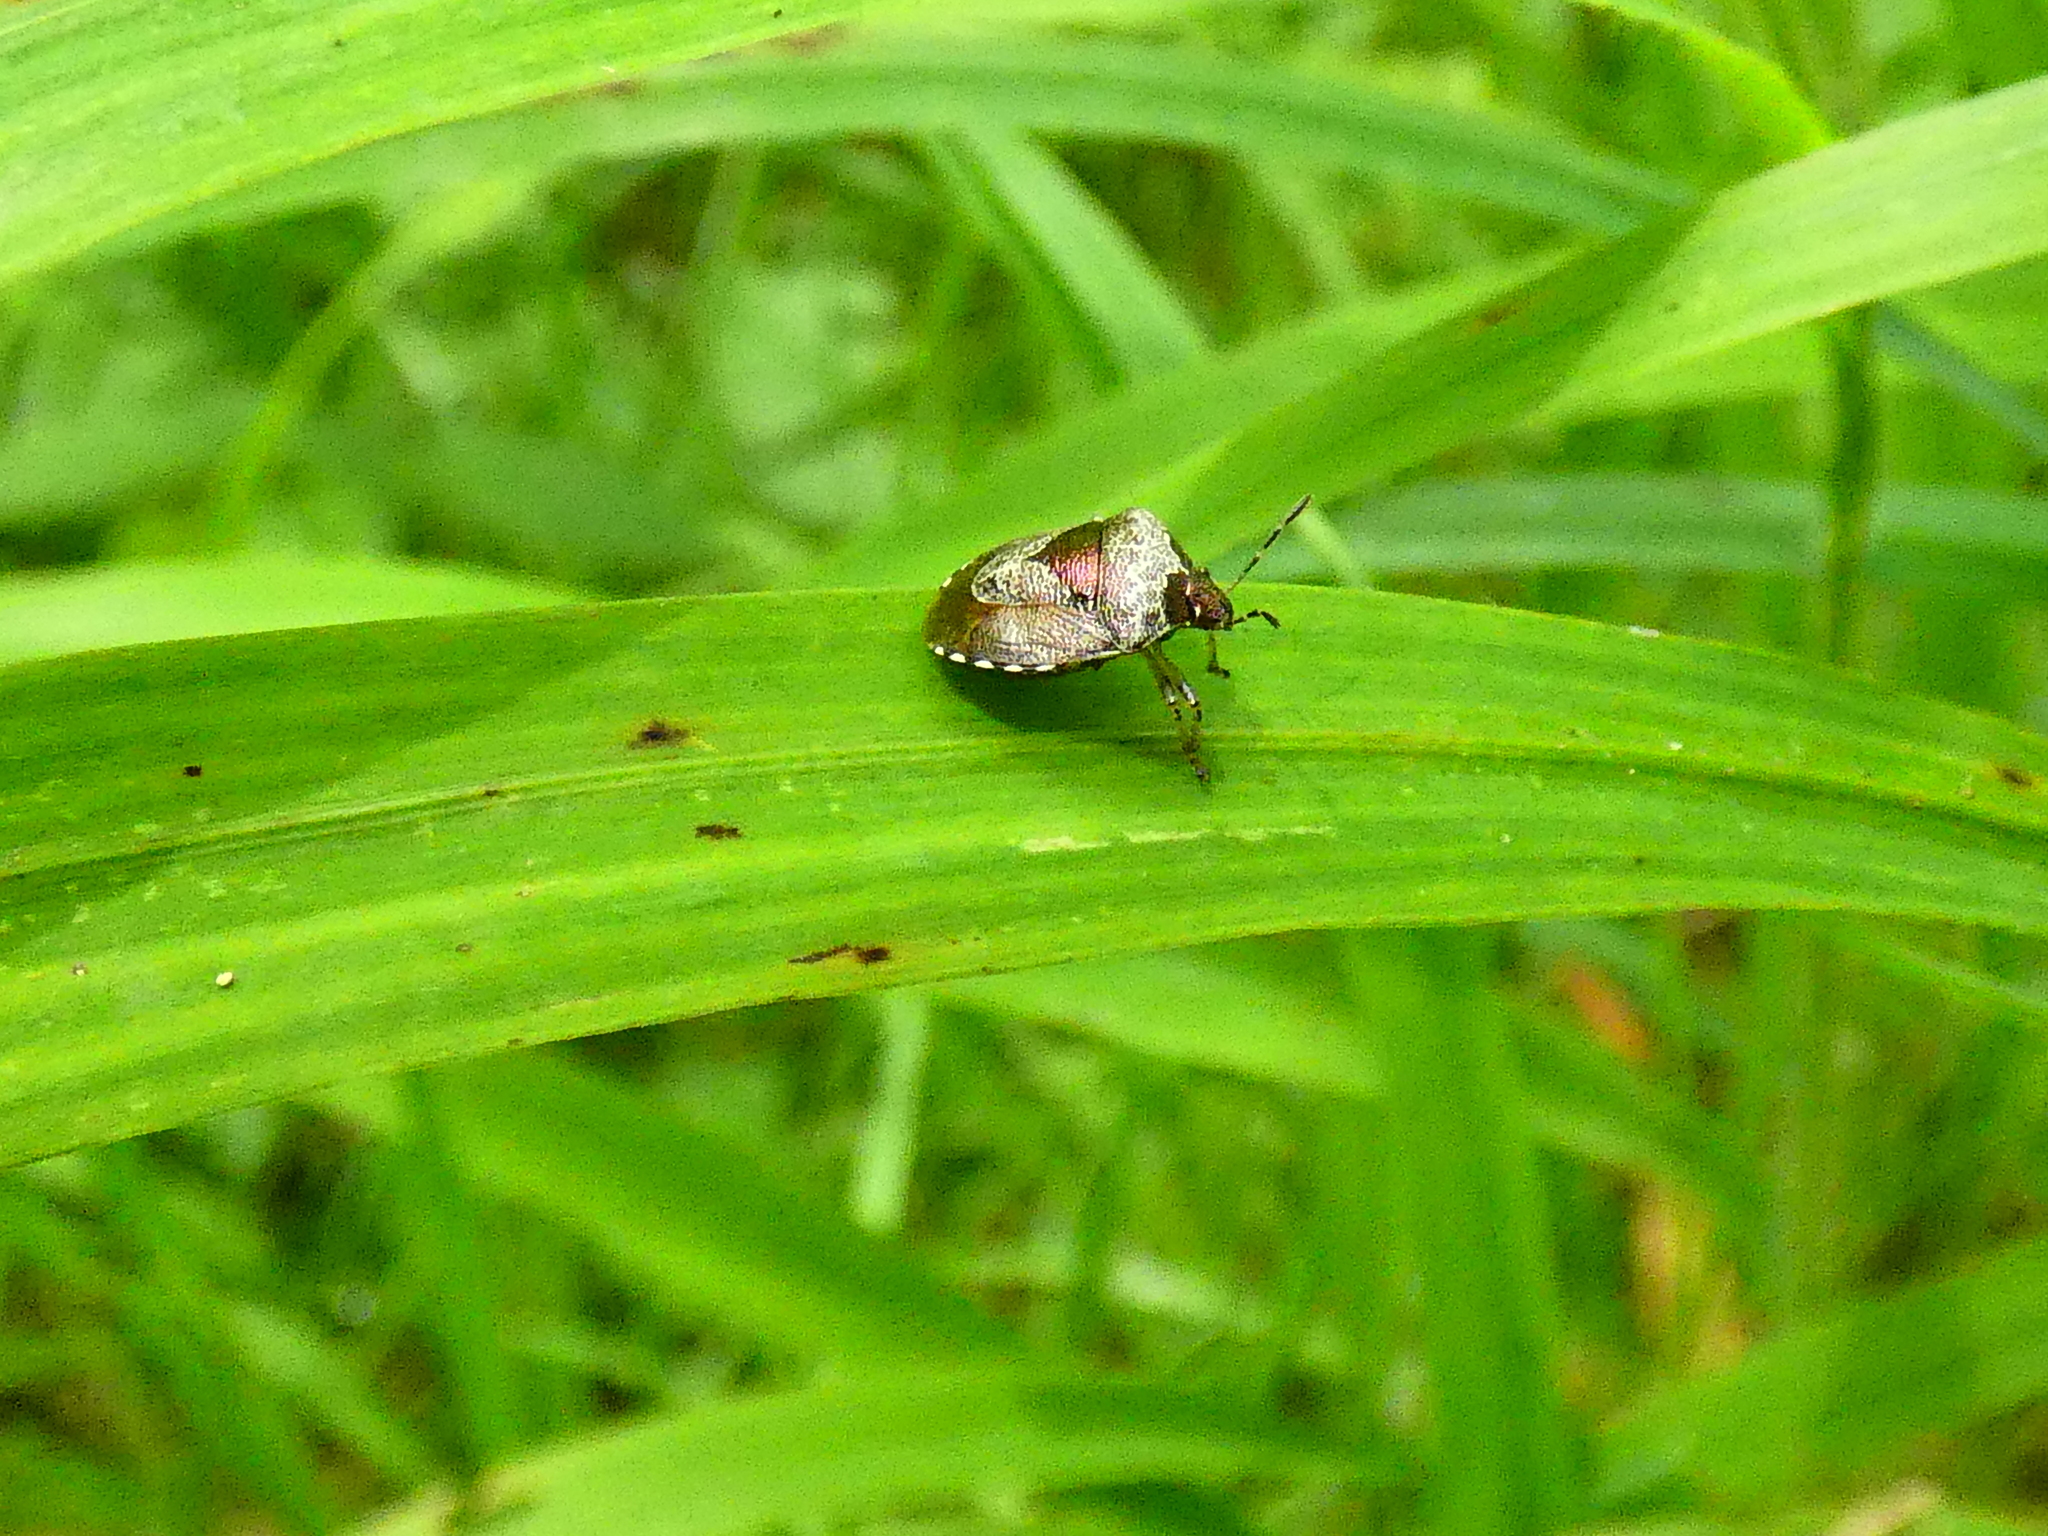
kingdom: Animalia
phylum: Arthropoda
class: Insecta
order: Hemiptera
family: Pentatomidae
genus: Eysarcoris
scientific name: Eysarcoris venustissimus
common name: Woundwort shieldbug
